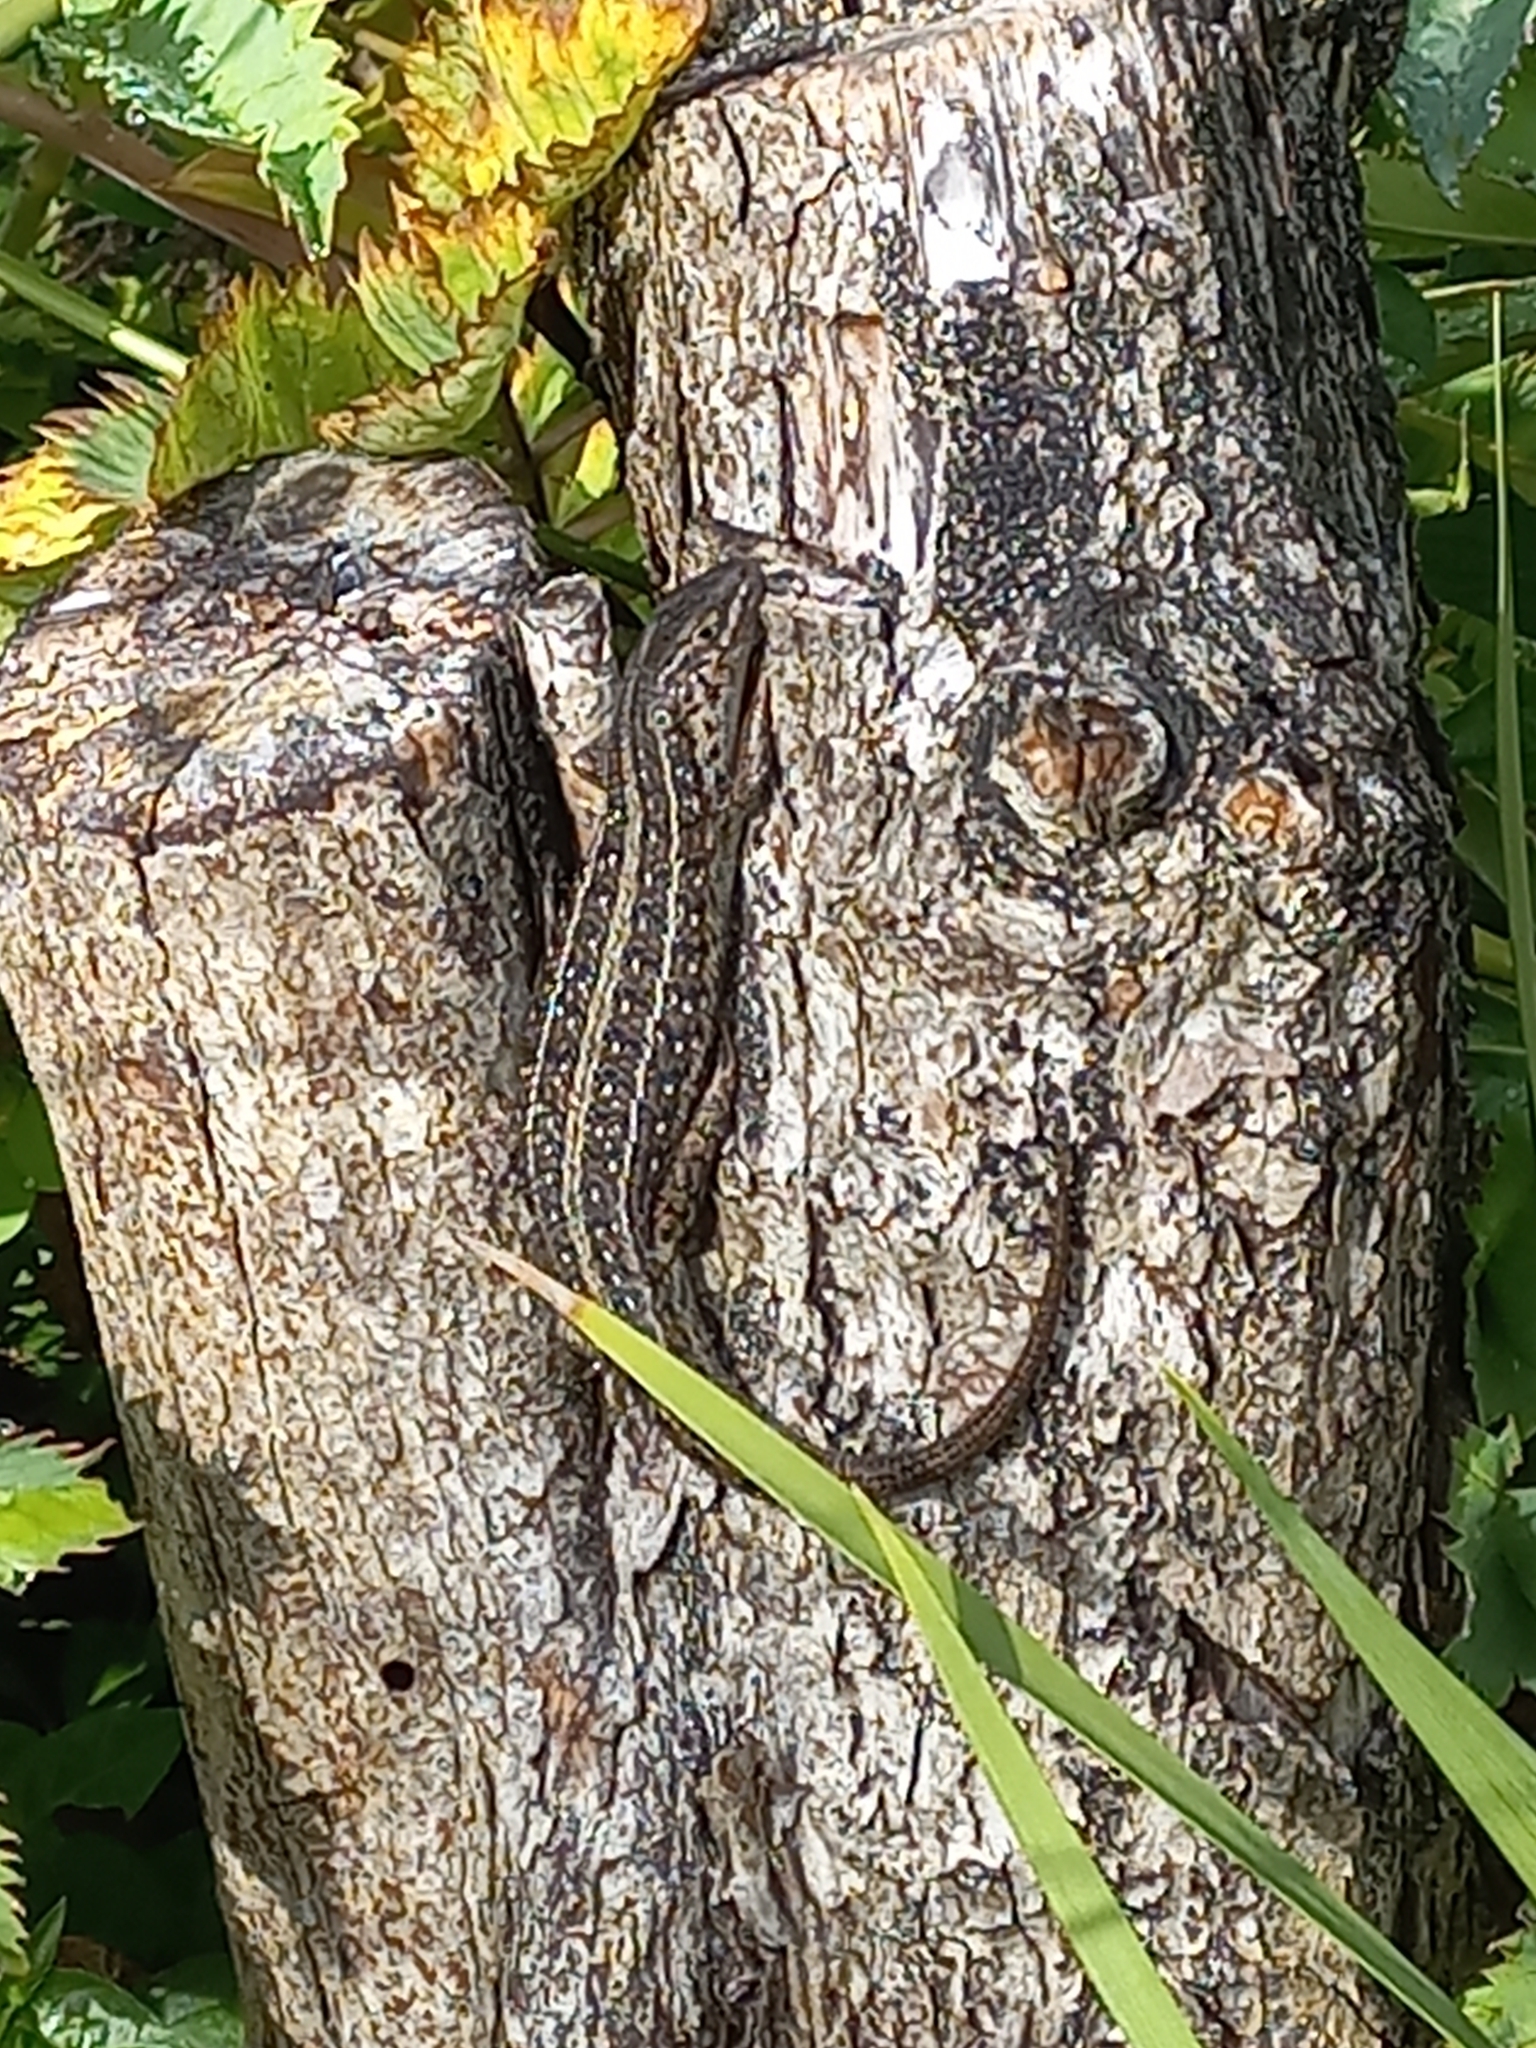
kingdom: Animalia
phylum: Chordata
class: Squamata
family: Scincidae
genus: Trachylepis
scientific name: Trachylepis capensis
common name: Cape skink
